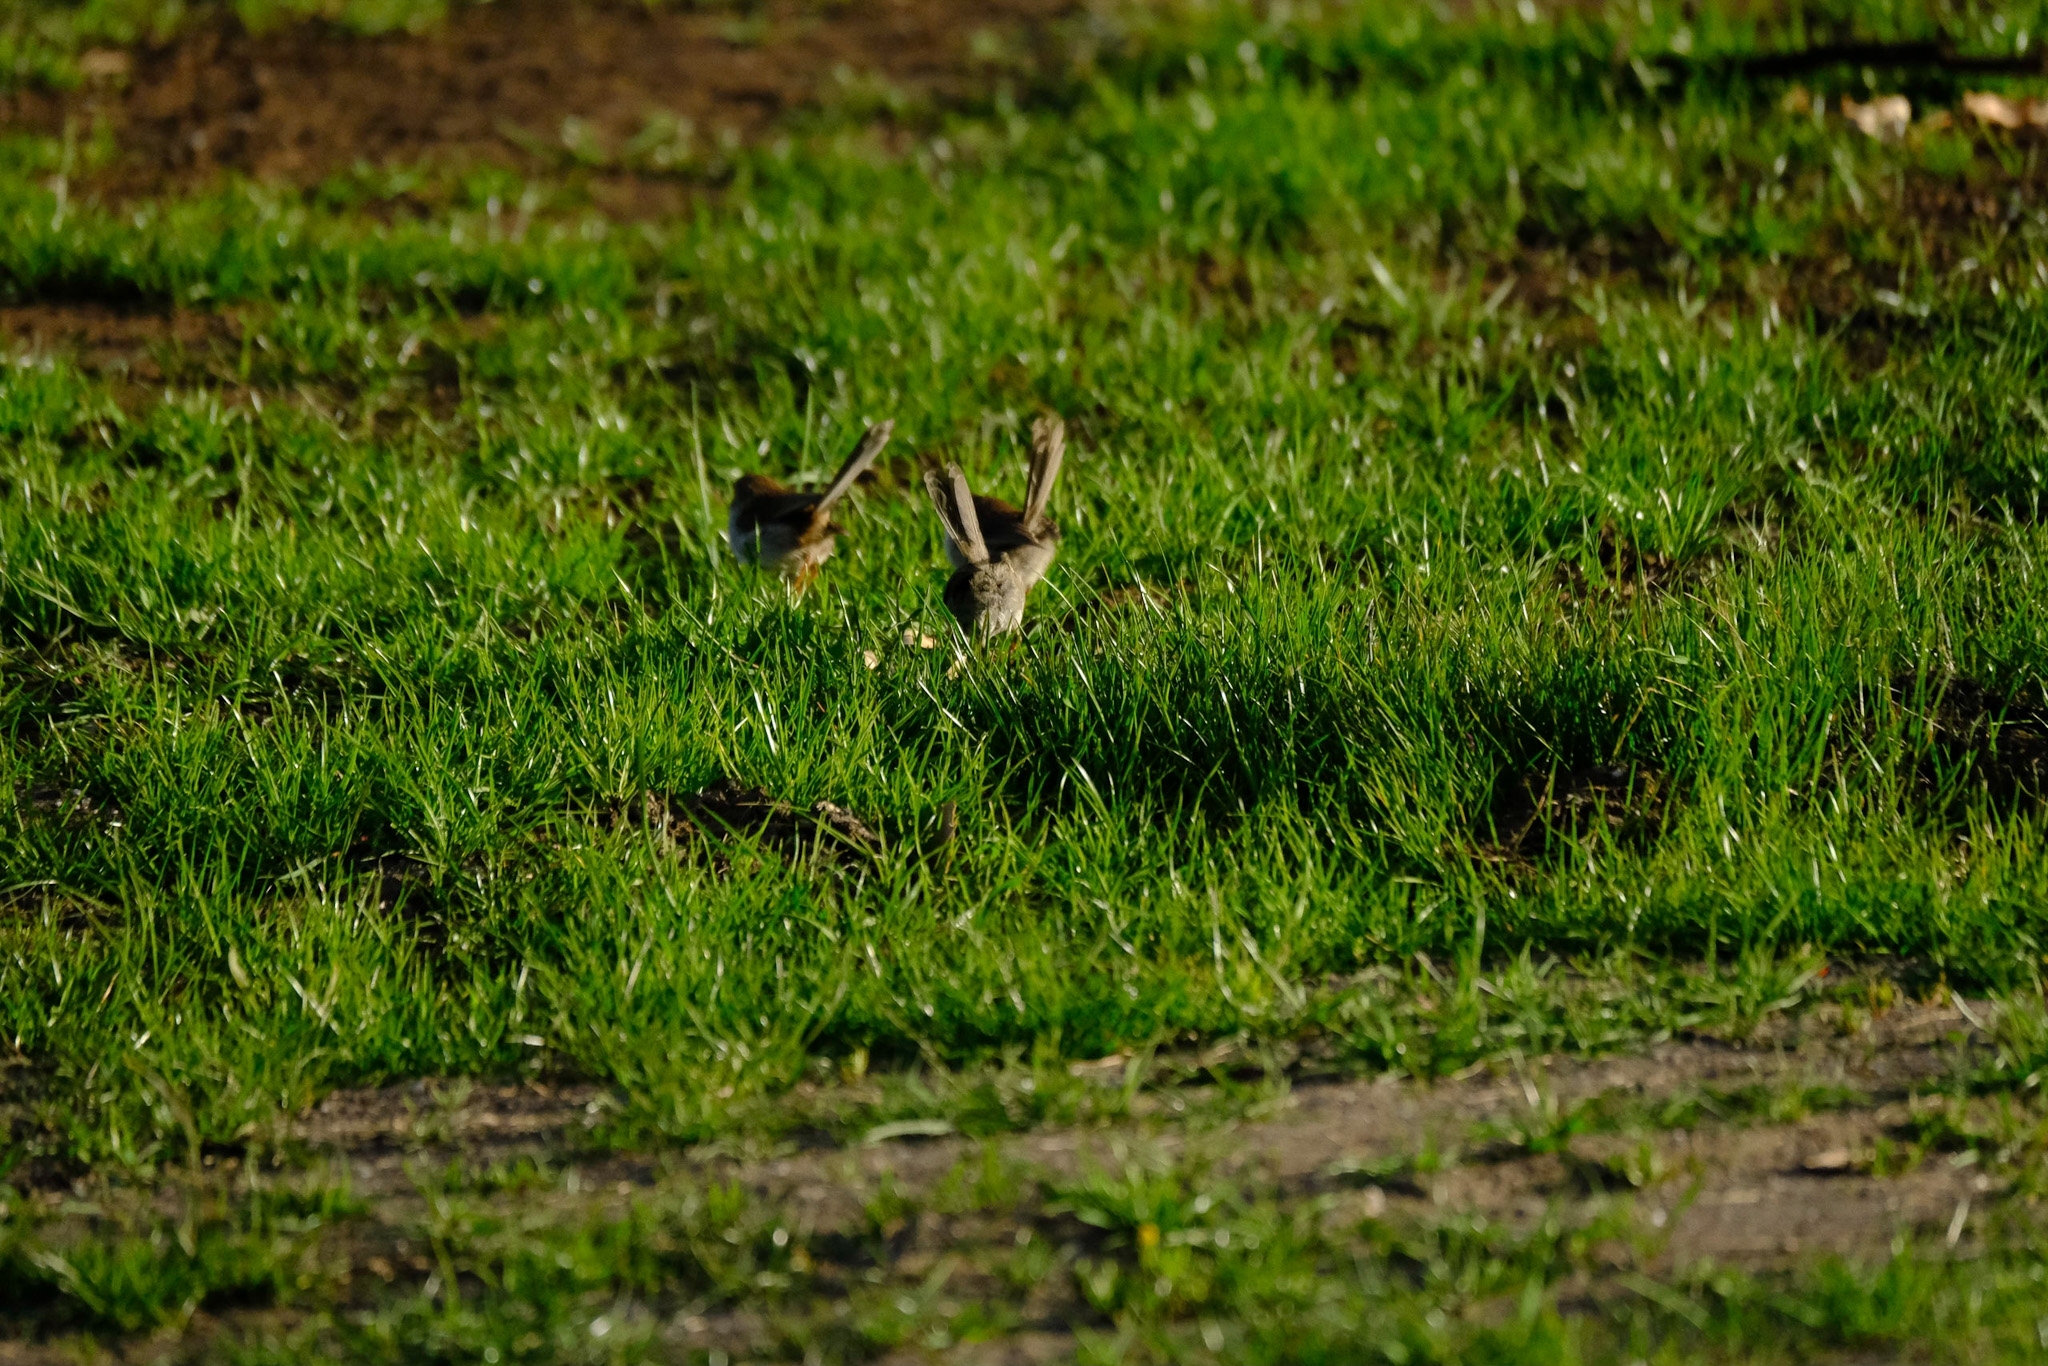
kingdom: Animalia
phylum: Chordata
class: Aves
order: Passeriformes
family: Maluridae
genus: Malurus
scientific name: Malurus cyaneus
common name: Superb fairywren
